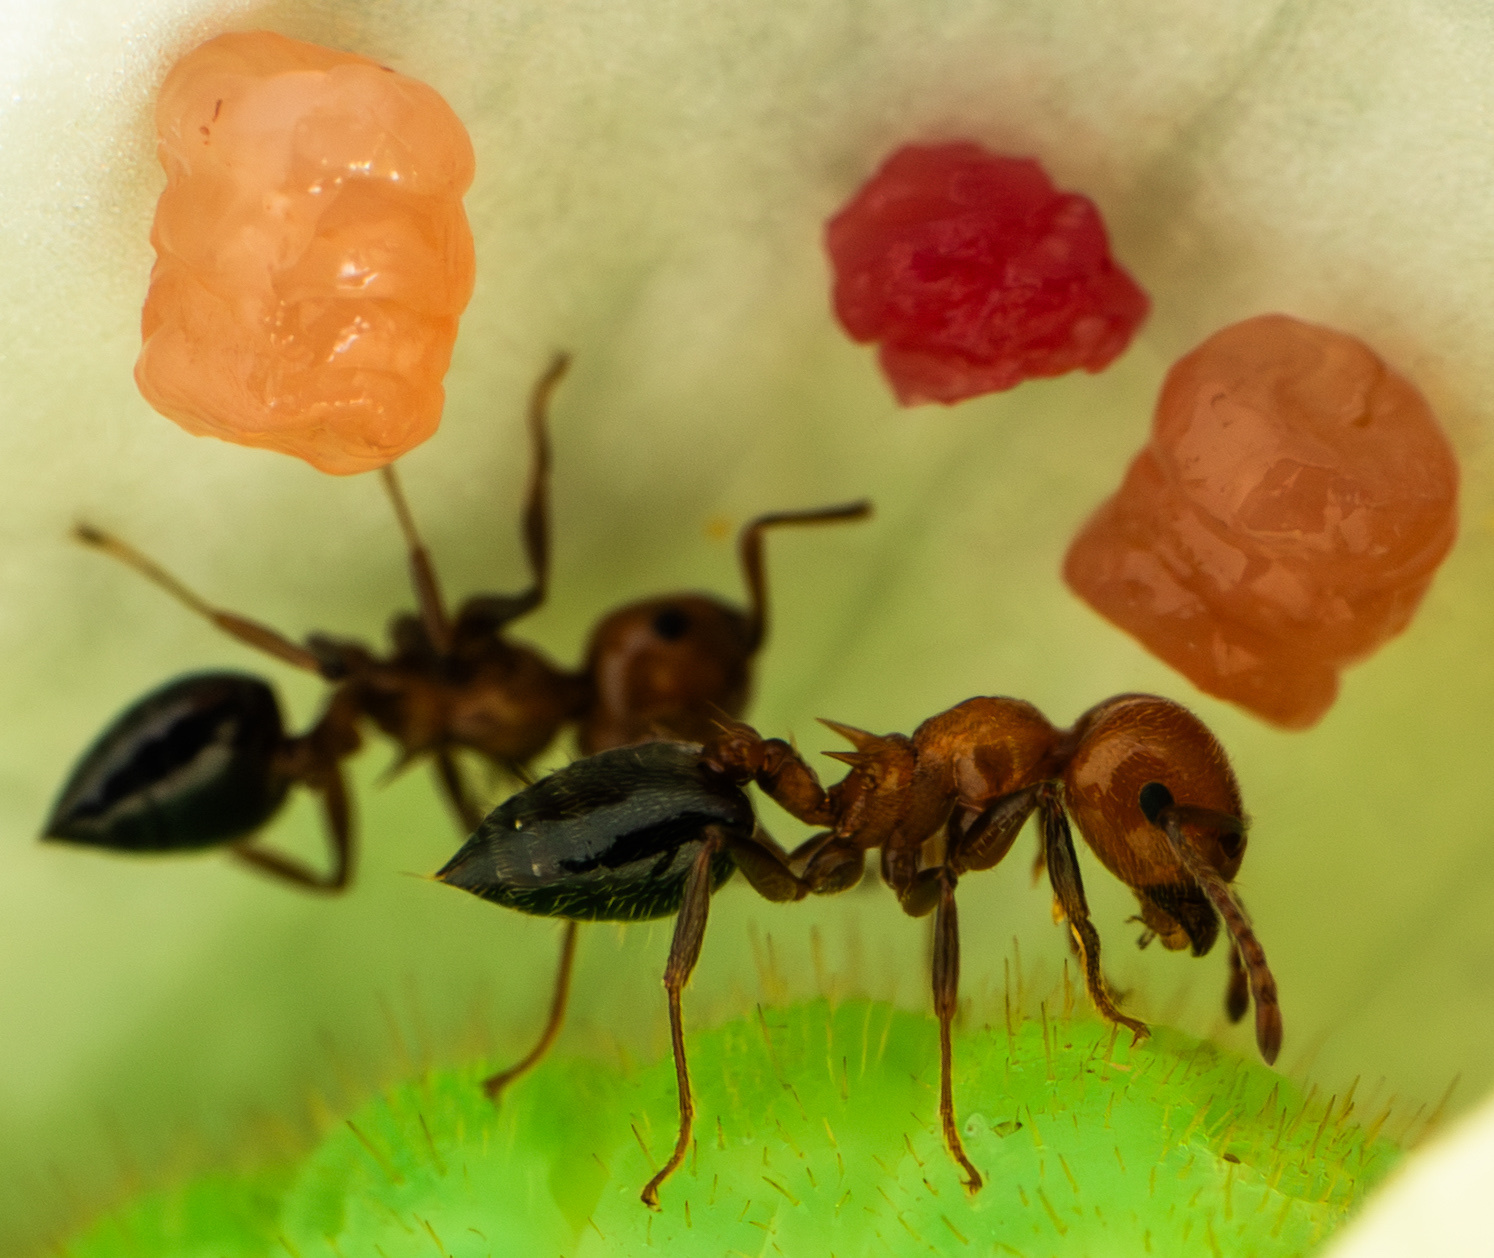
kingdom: Animalia
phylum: Arthropoda
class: Insecta
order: Hymenoptera
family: Formicidae
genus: Crematogaster
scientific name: Crematogaster laeviuscula
